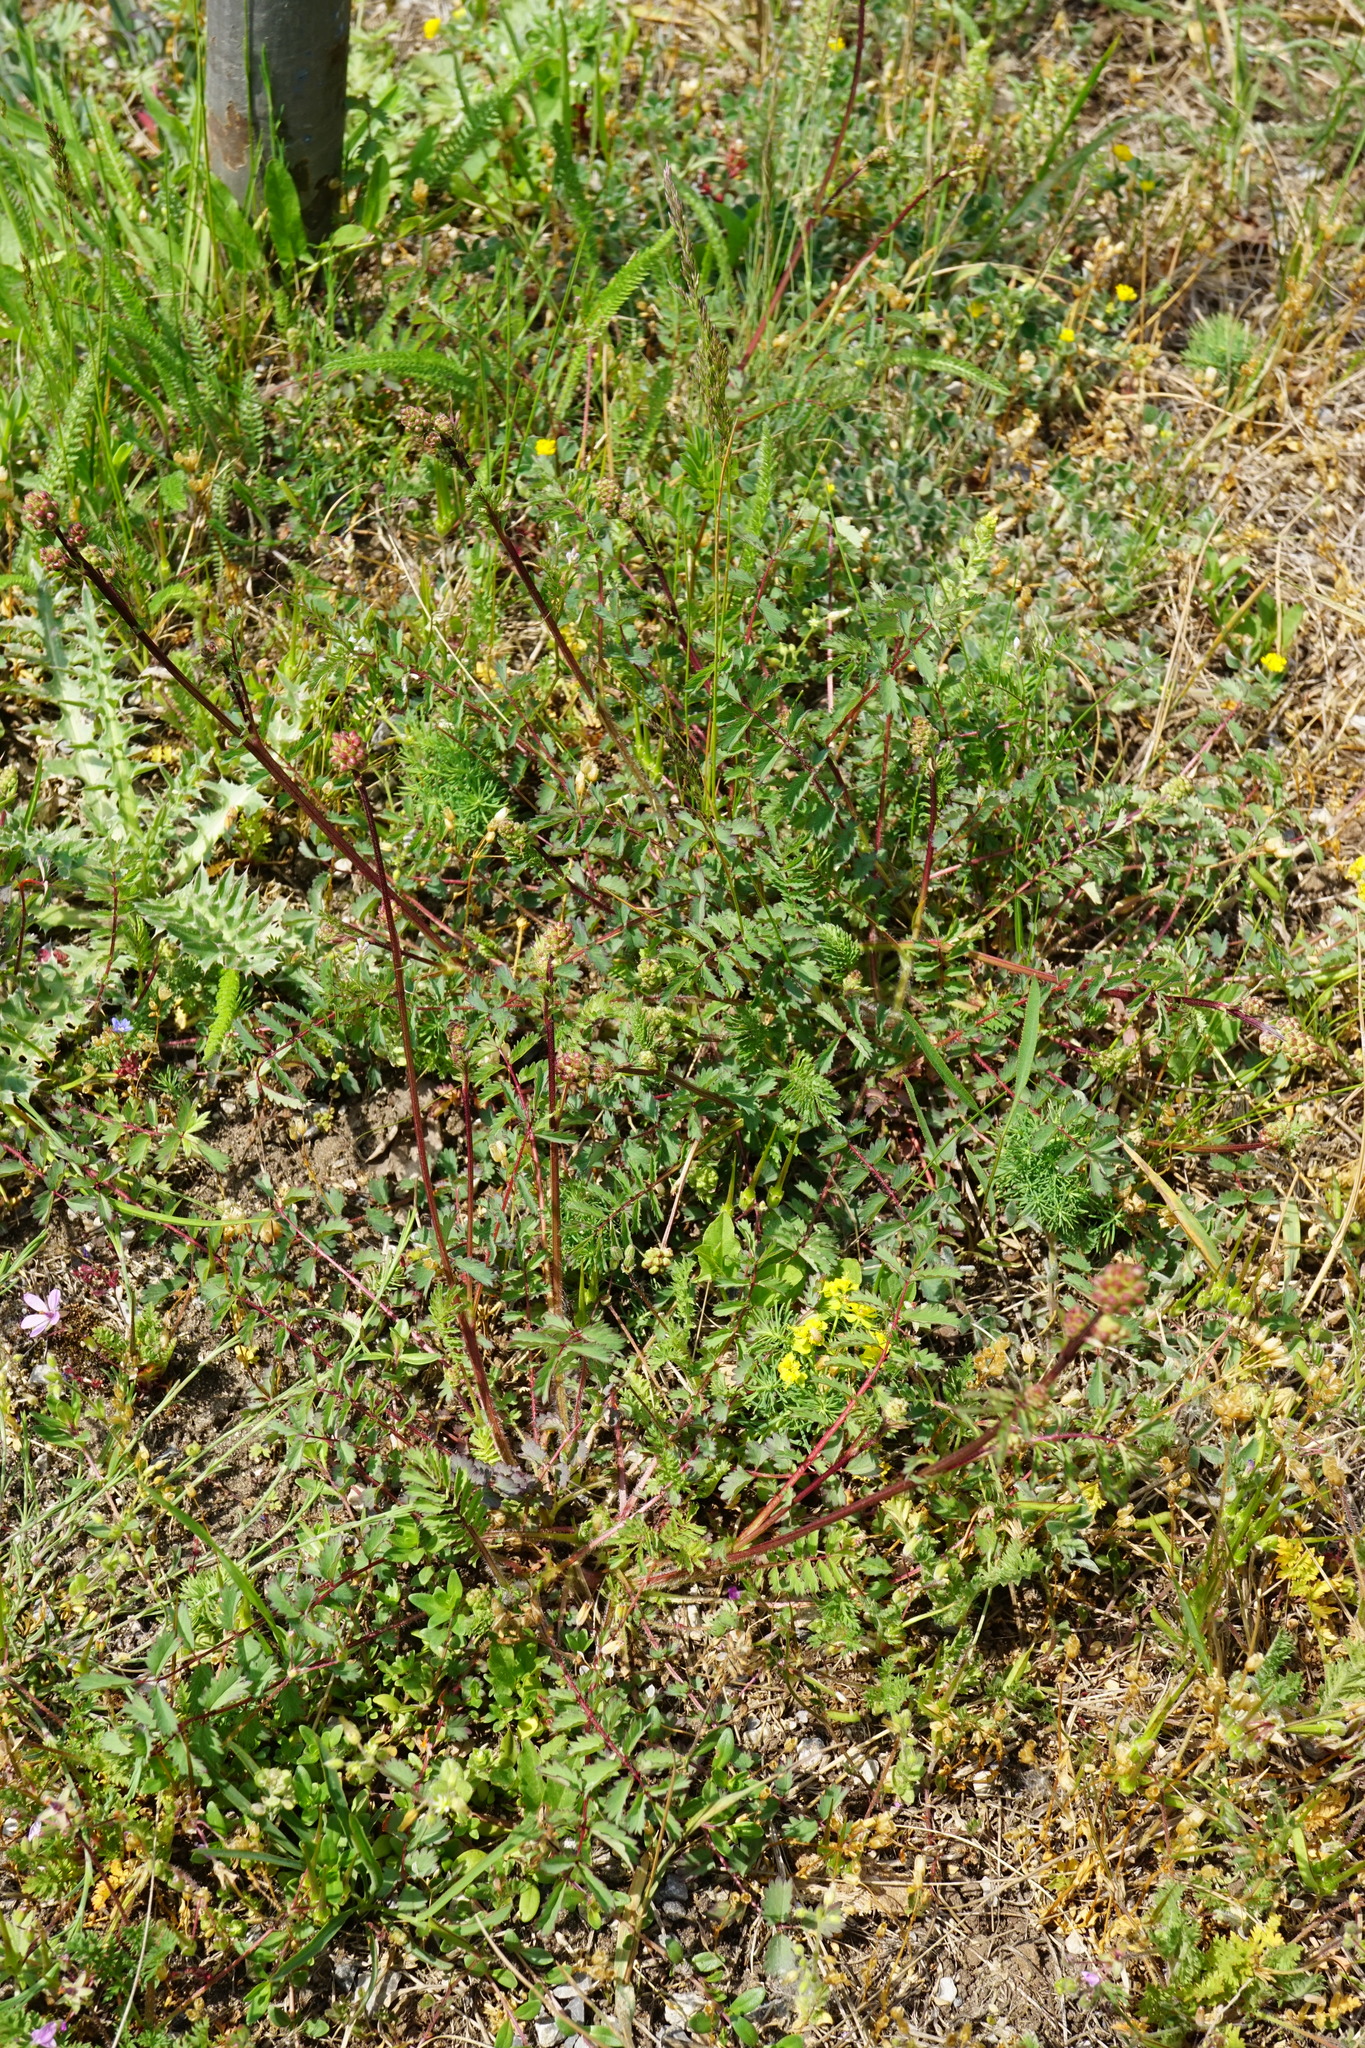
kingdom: Plantae
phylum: Tracheophyta
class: Magnoliopsida
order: Rosales
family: Rosaceae
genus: Poterium
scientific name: Poterium sanguisorba
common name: Salad burnet
